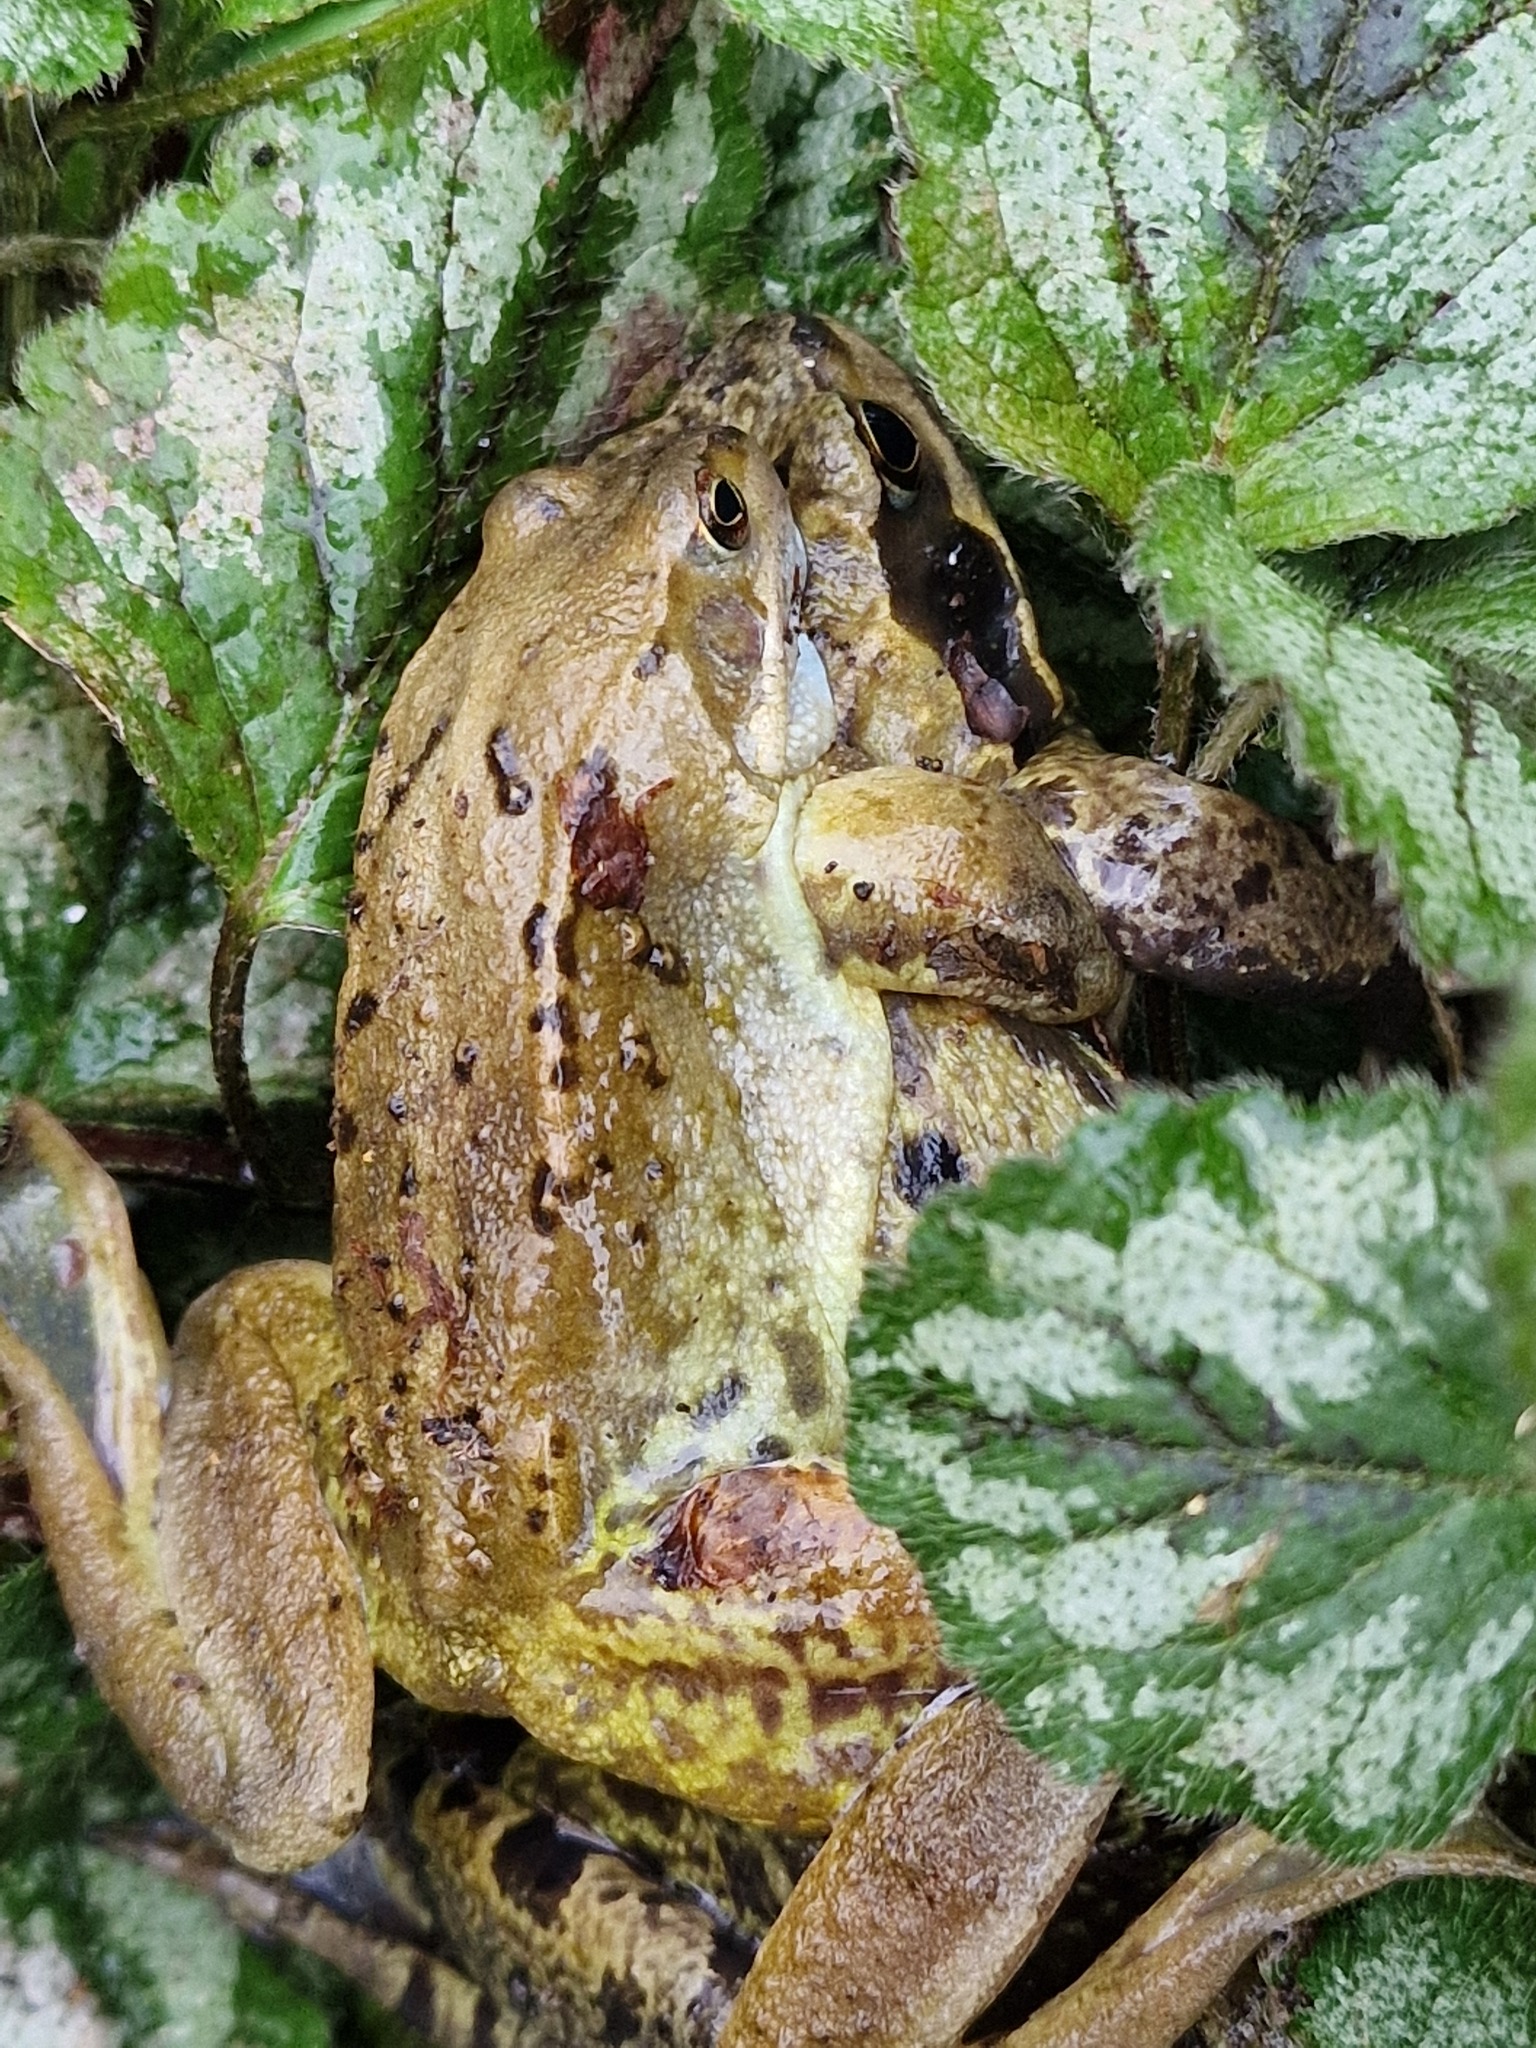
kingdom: Animalia
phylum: Chordata
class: Amphibia
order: Anura
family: Ranidae
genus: Rana
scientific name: Rana temporaria
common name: Common frog
